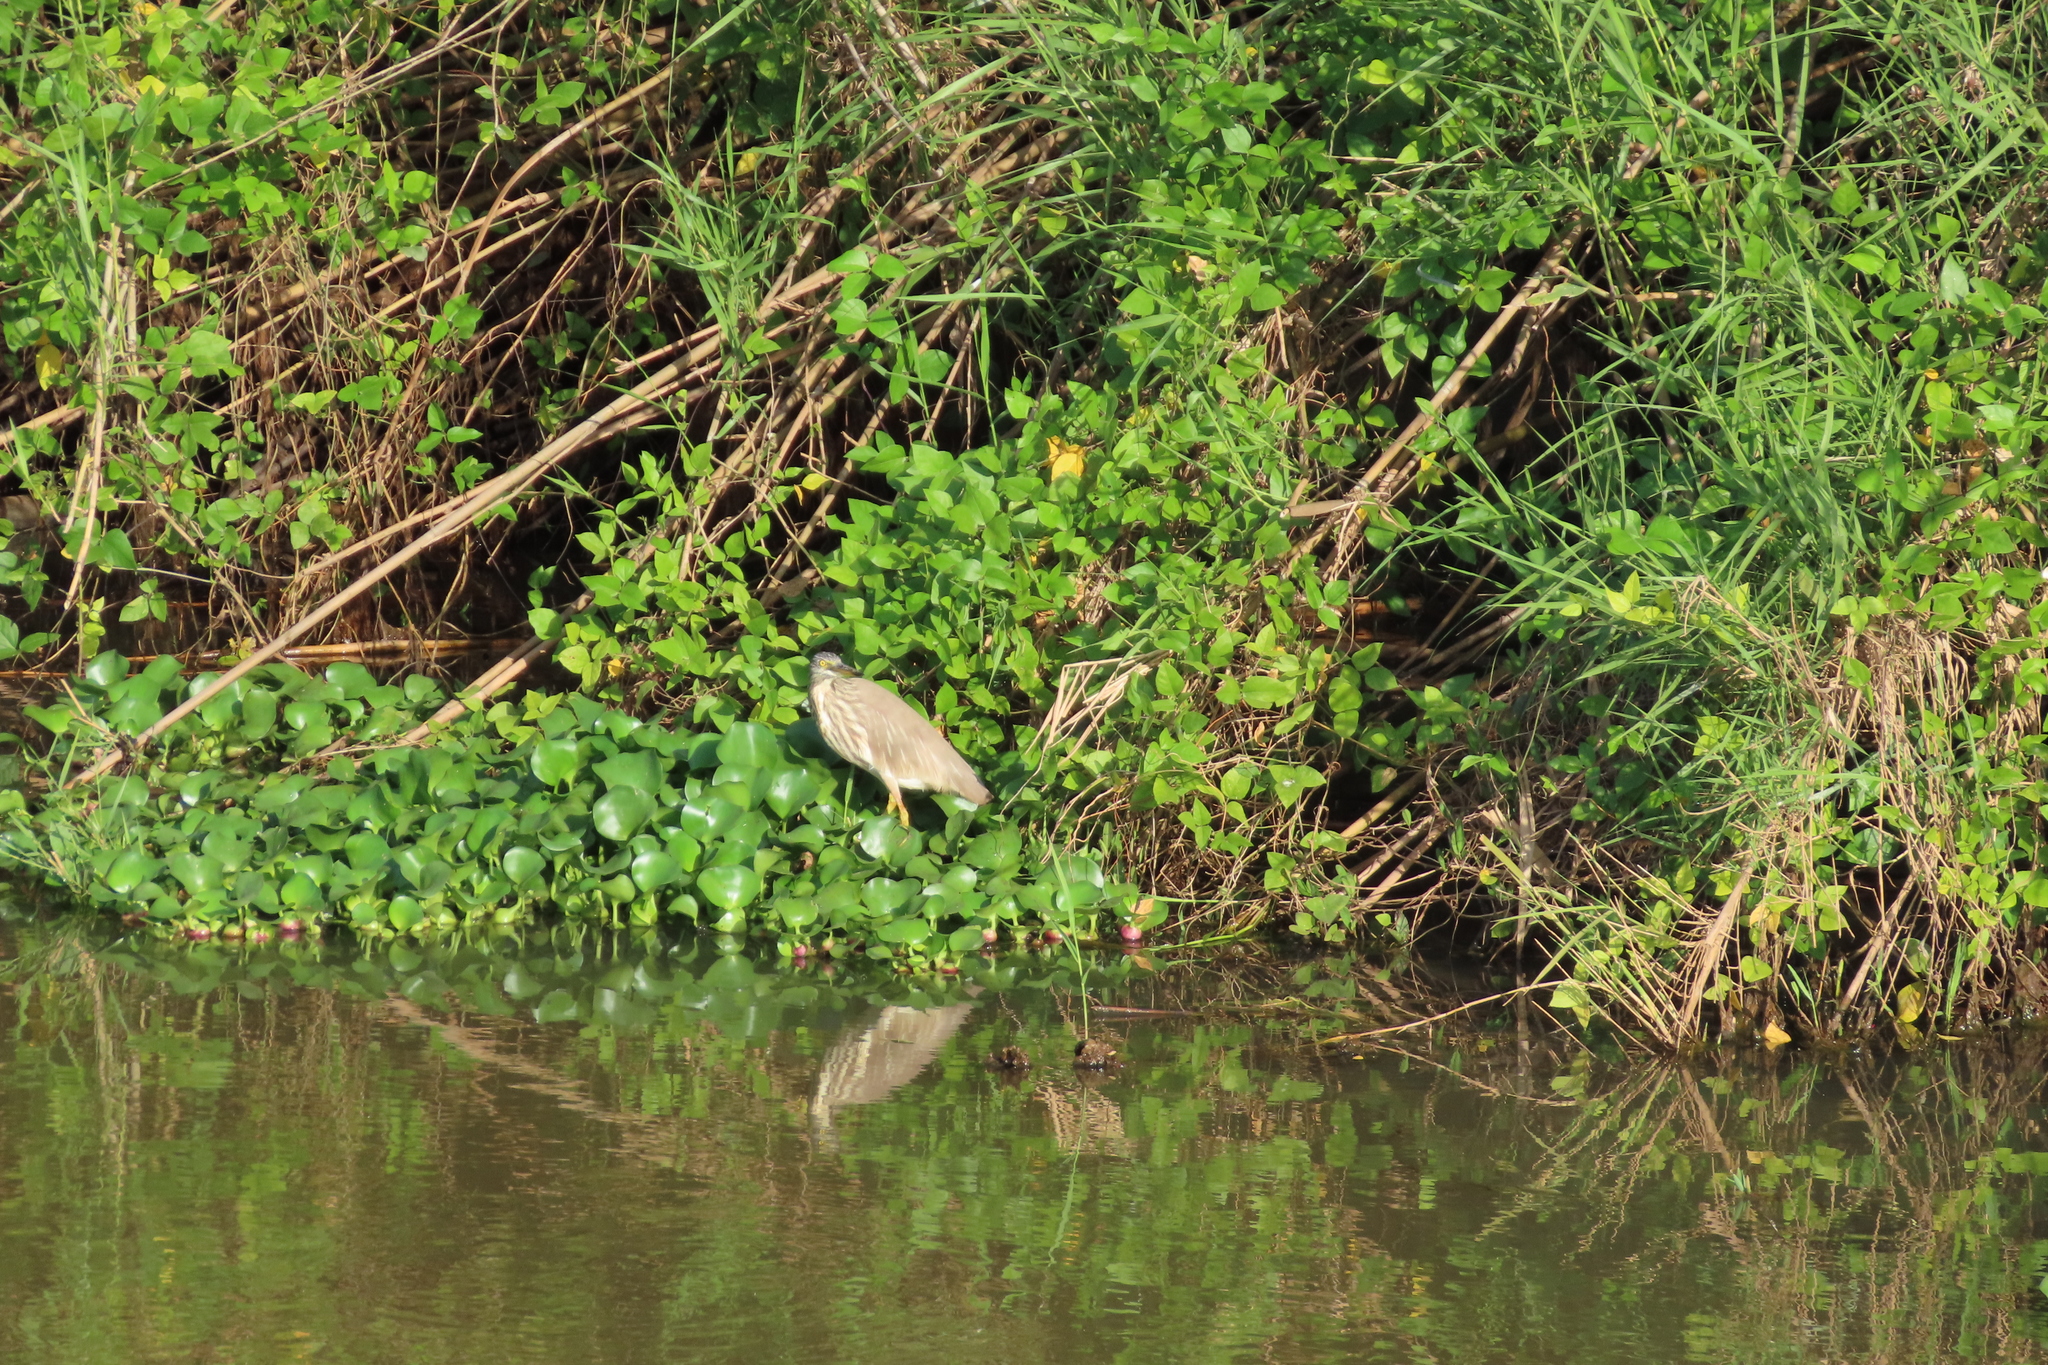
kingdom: Plantae
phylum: Tracheophyta
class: Liliopsida
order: Commelinales
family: Pontederiaceae
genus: Pontederia
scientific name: Pontederia crassipes
